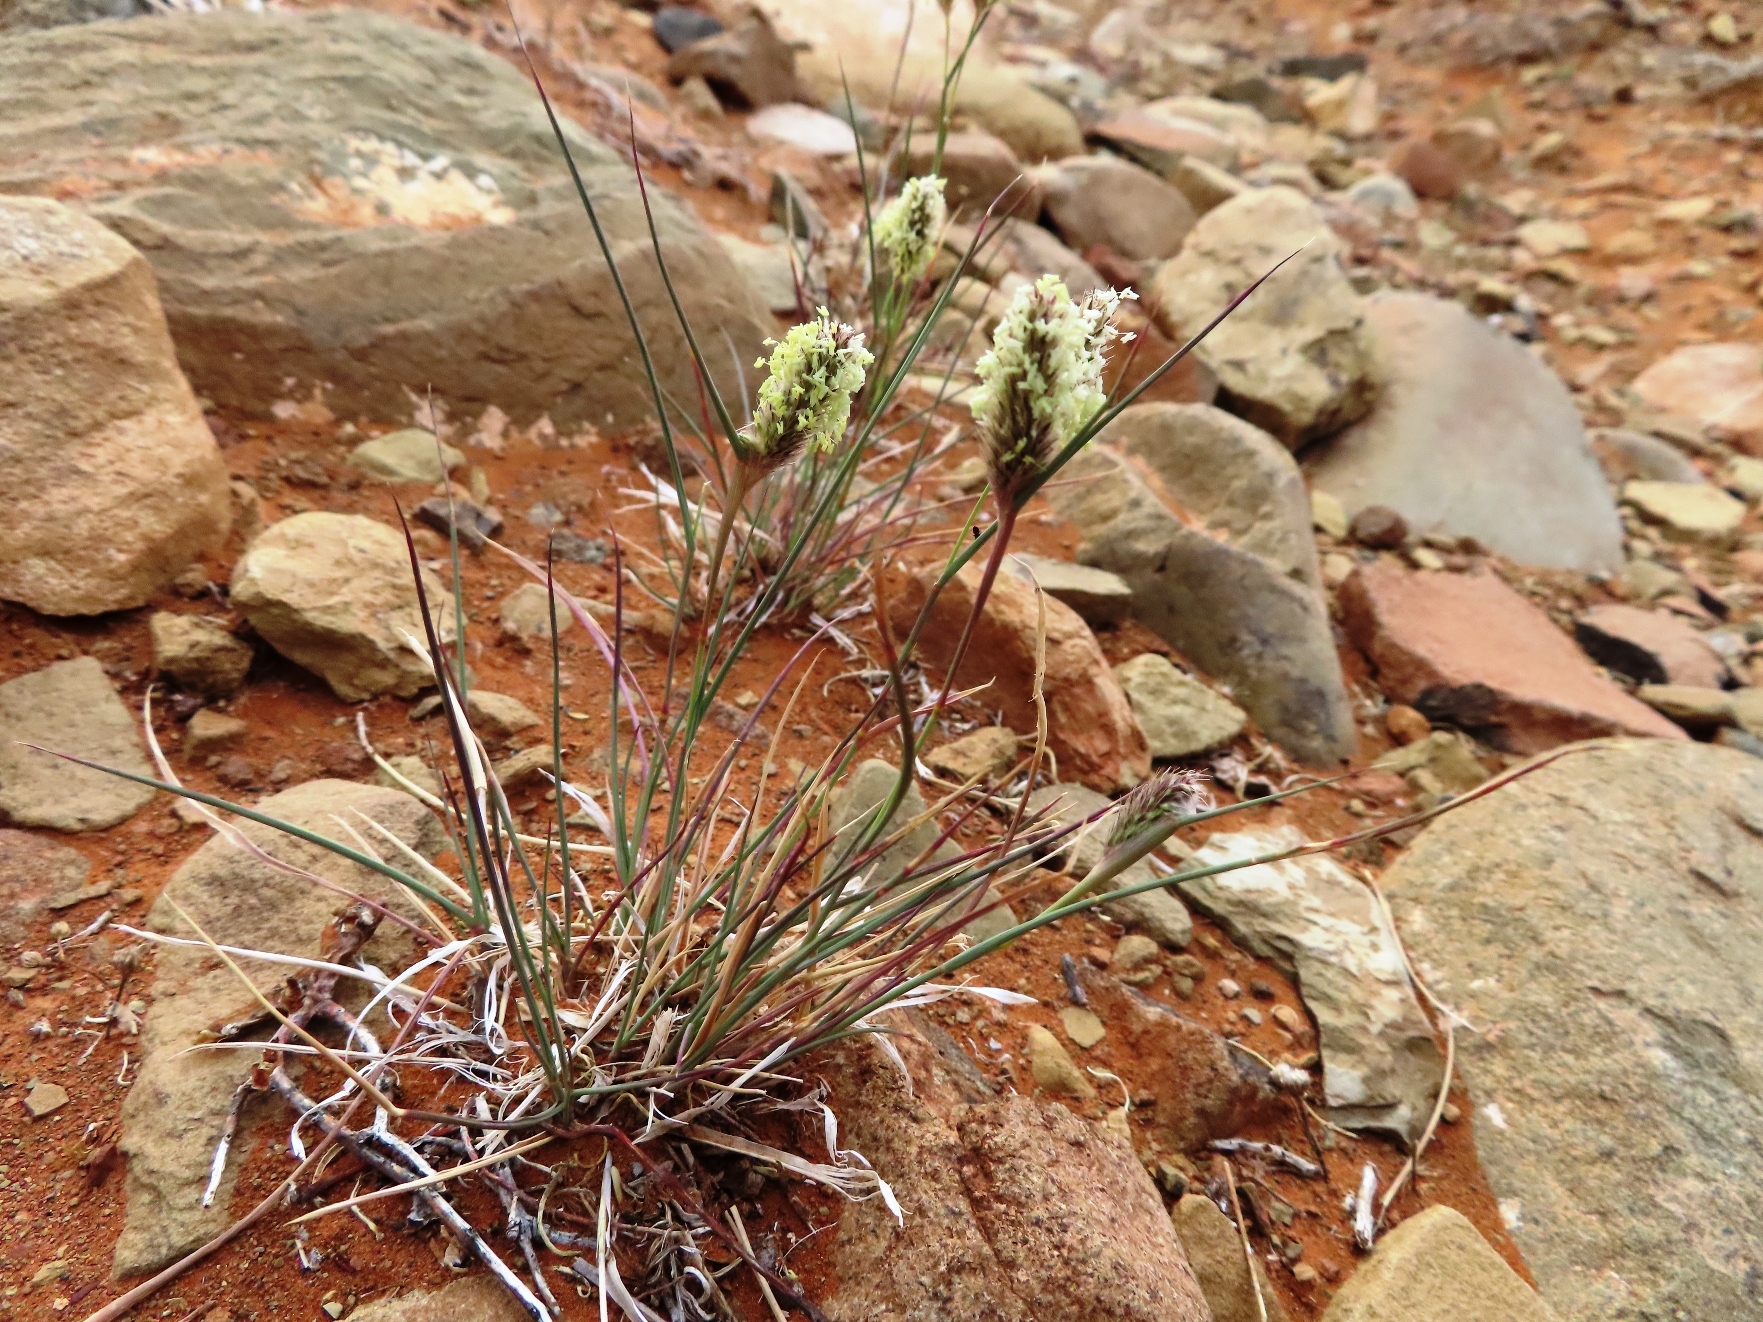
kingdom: Plantae
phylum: Tracheophyta
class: Liliopsida
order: Poales
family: Poaceae
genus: Fingerhuthia
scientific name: Fingerhuthia africana
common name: Zulu fescue
